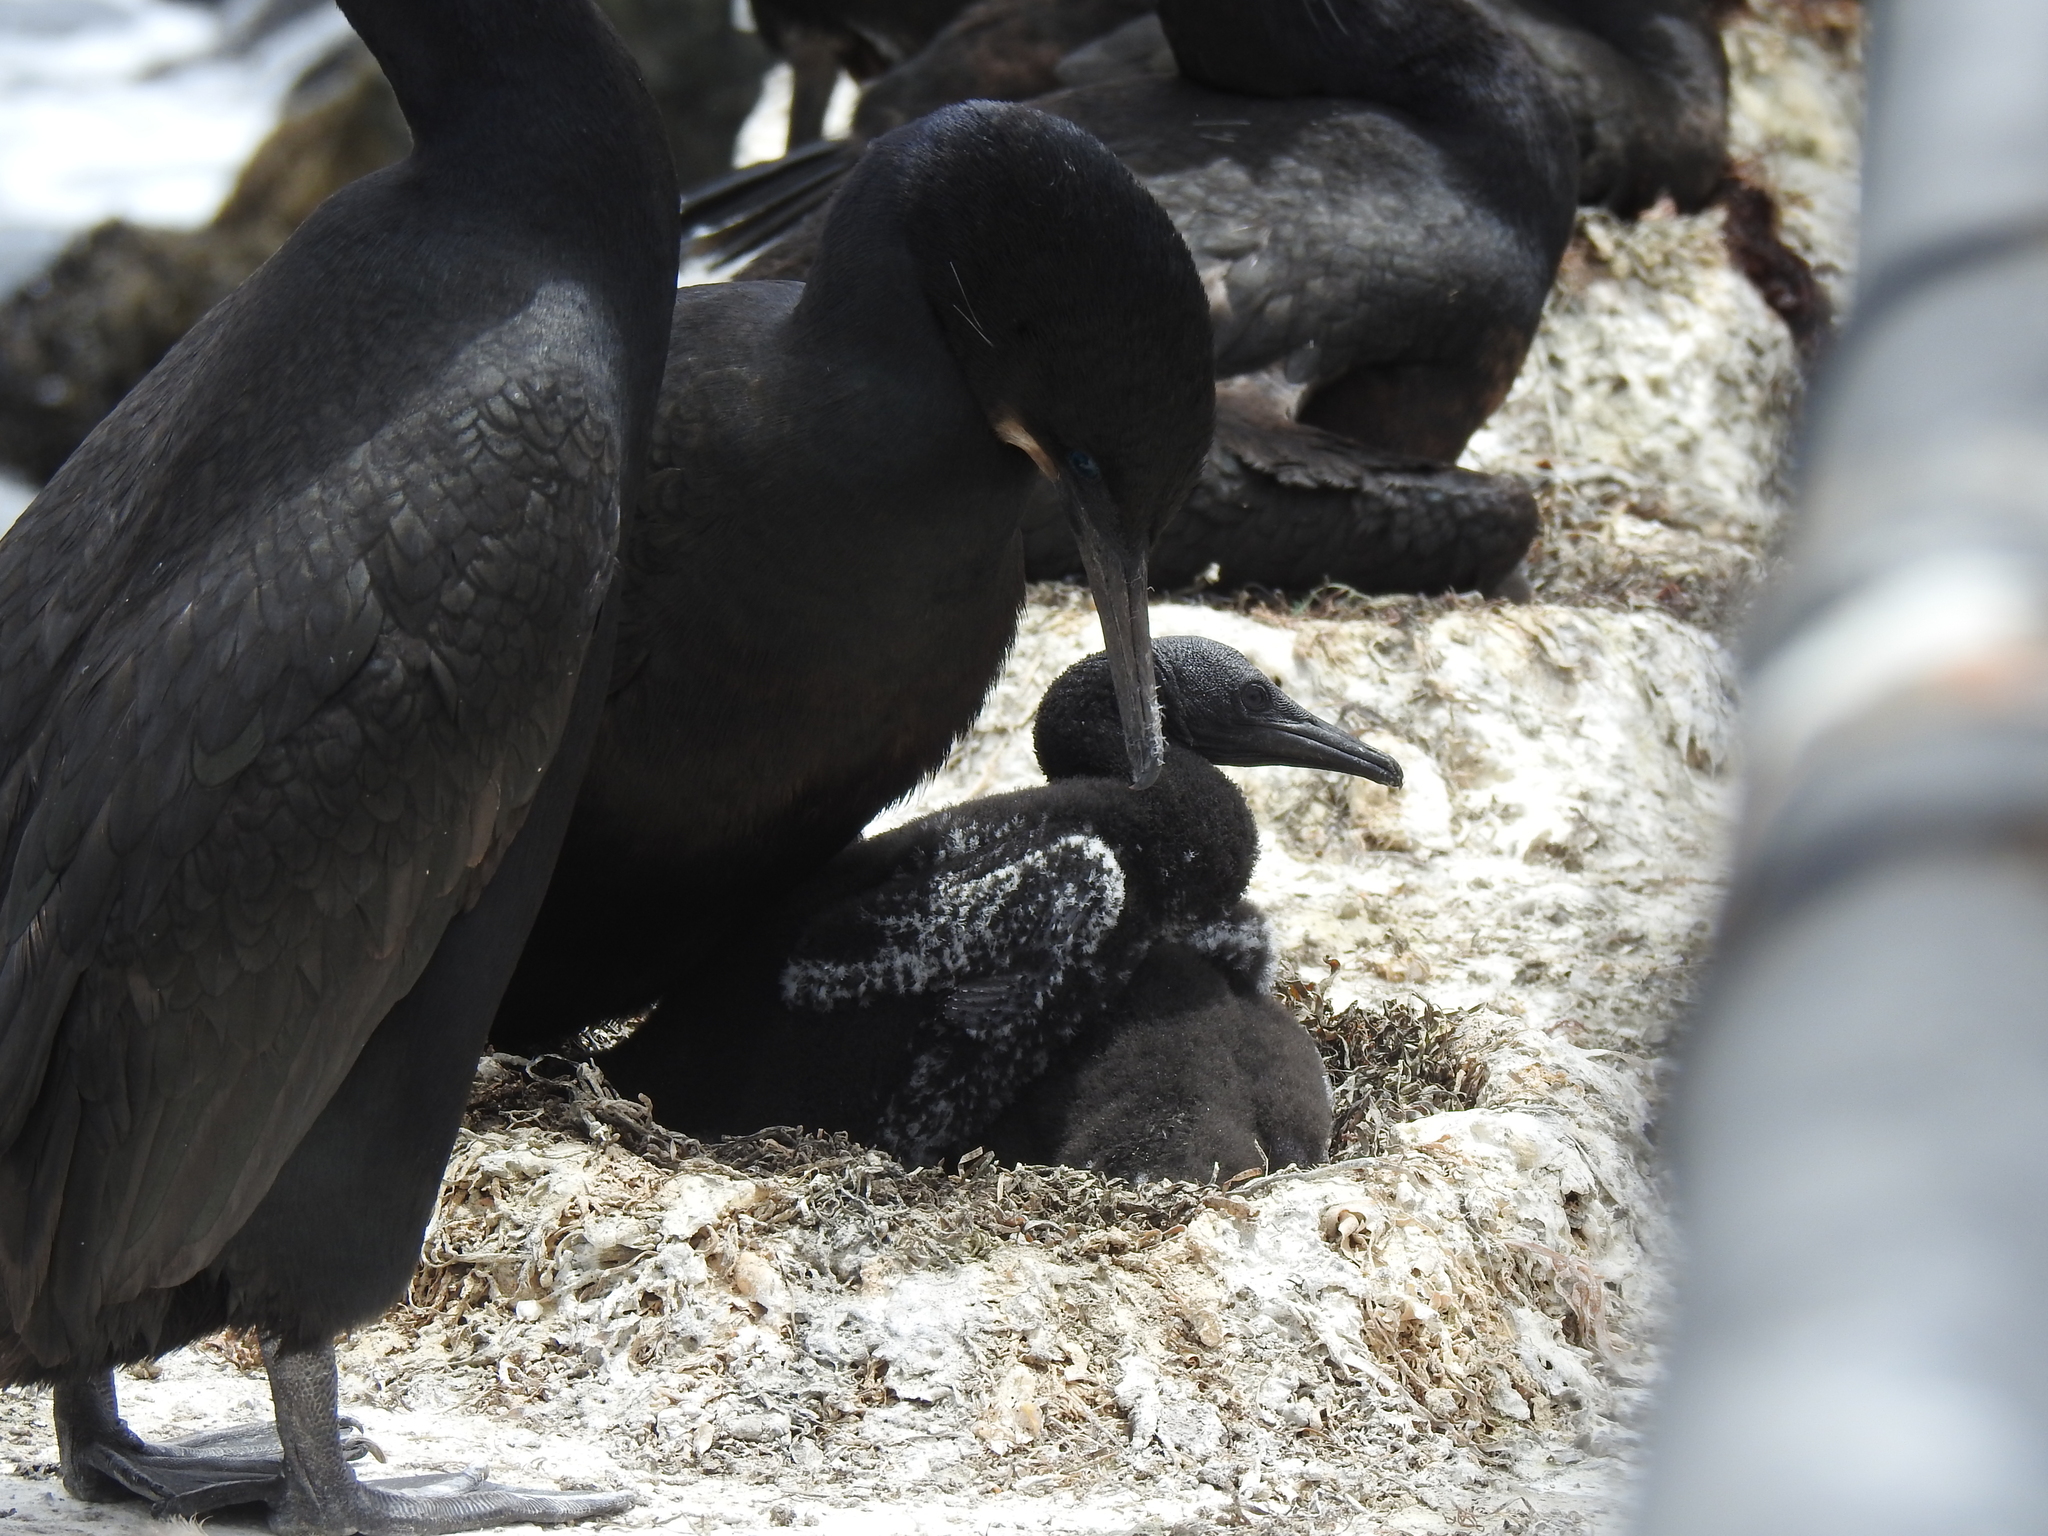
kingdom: Animalia
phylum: Chordata
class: Aves
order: Suliformes
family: Phalacrocoracidae
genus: Urile
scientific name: Urile penicillatus
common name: Brandt's cormorant
